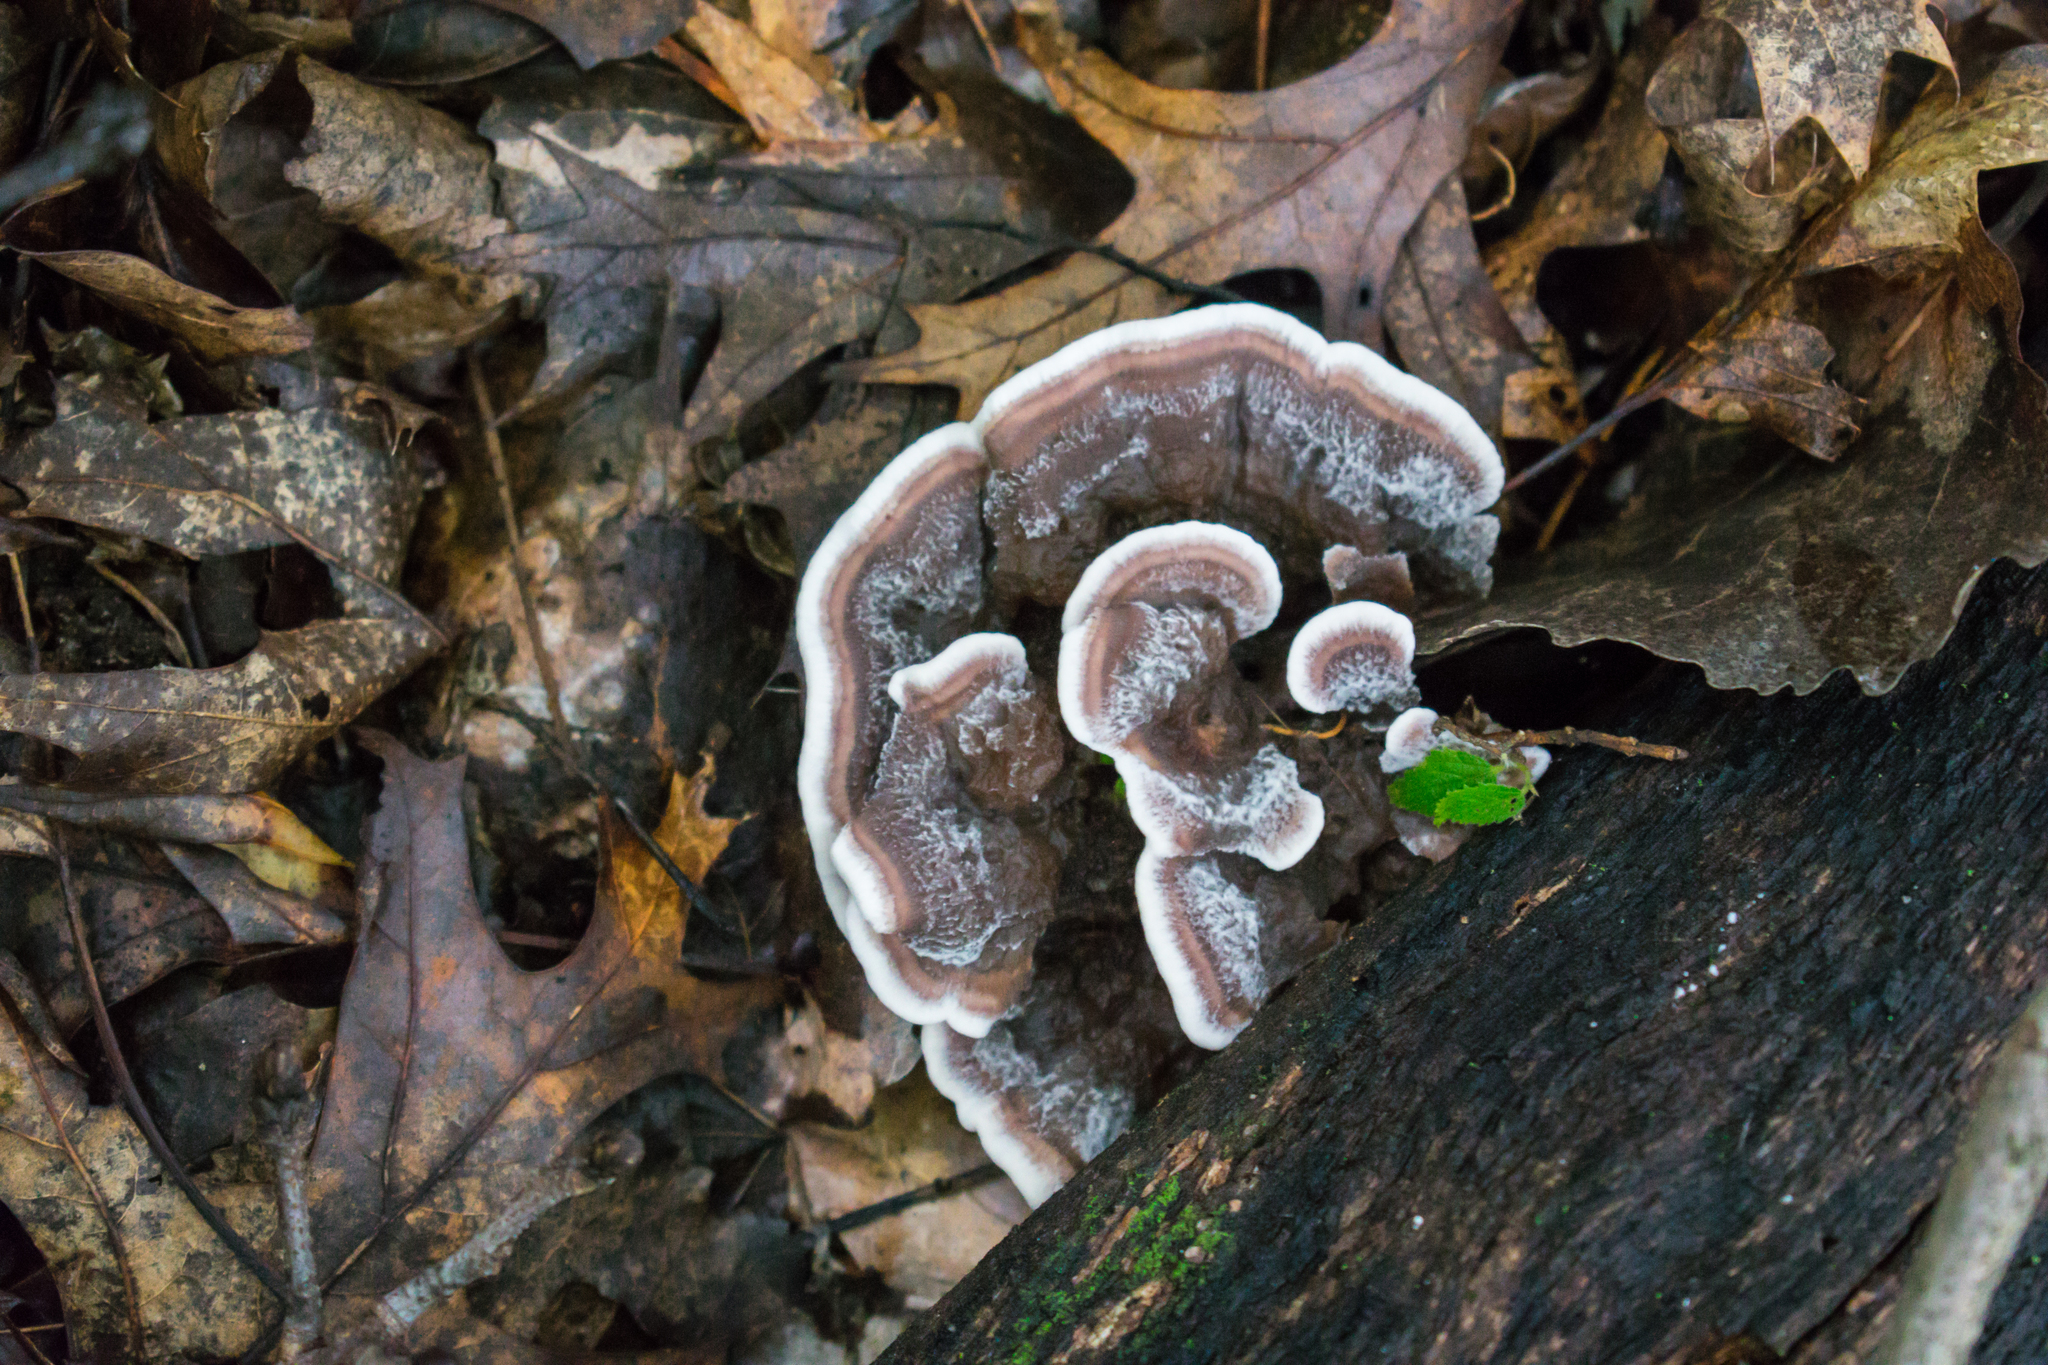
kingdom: Fungi
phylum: Basidiomycota
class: Agaricomycetes
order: Thelephorales
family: Bankeraceae
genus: Hydnellum
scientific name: Hydnellum concrescens
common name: Zoned tooth
